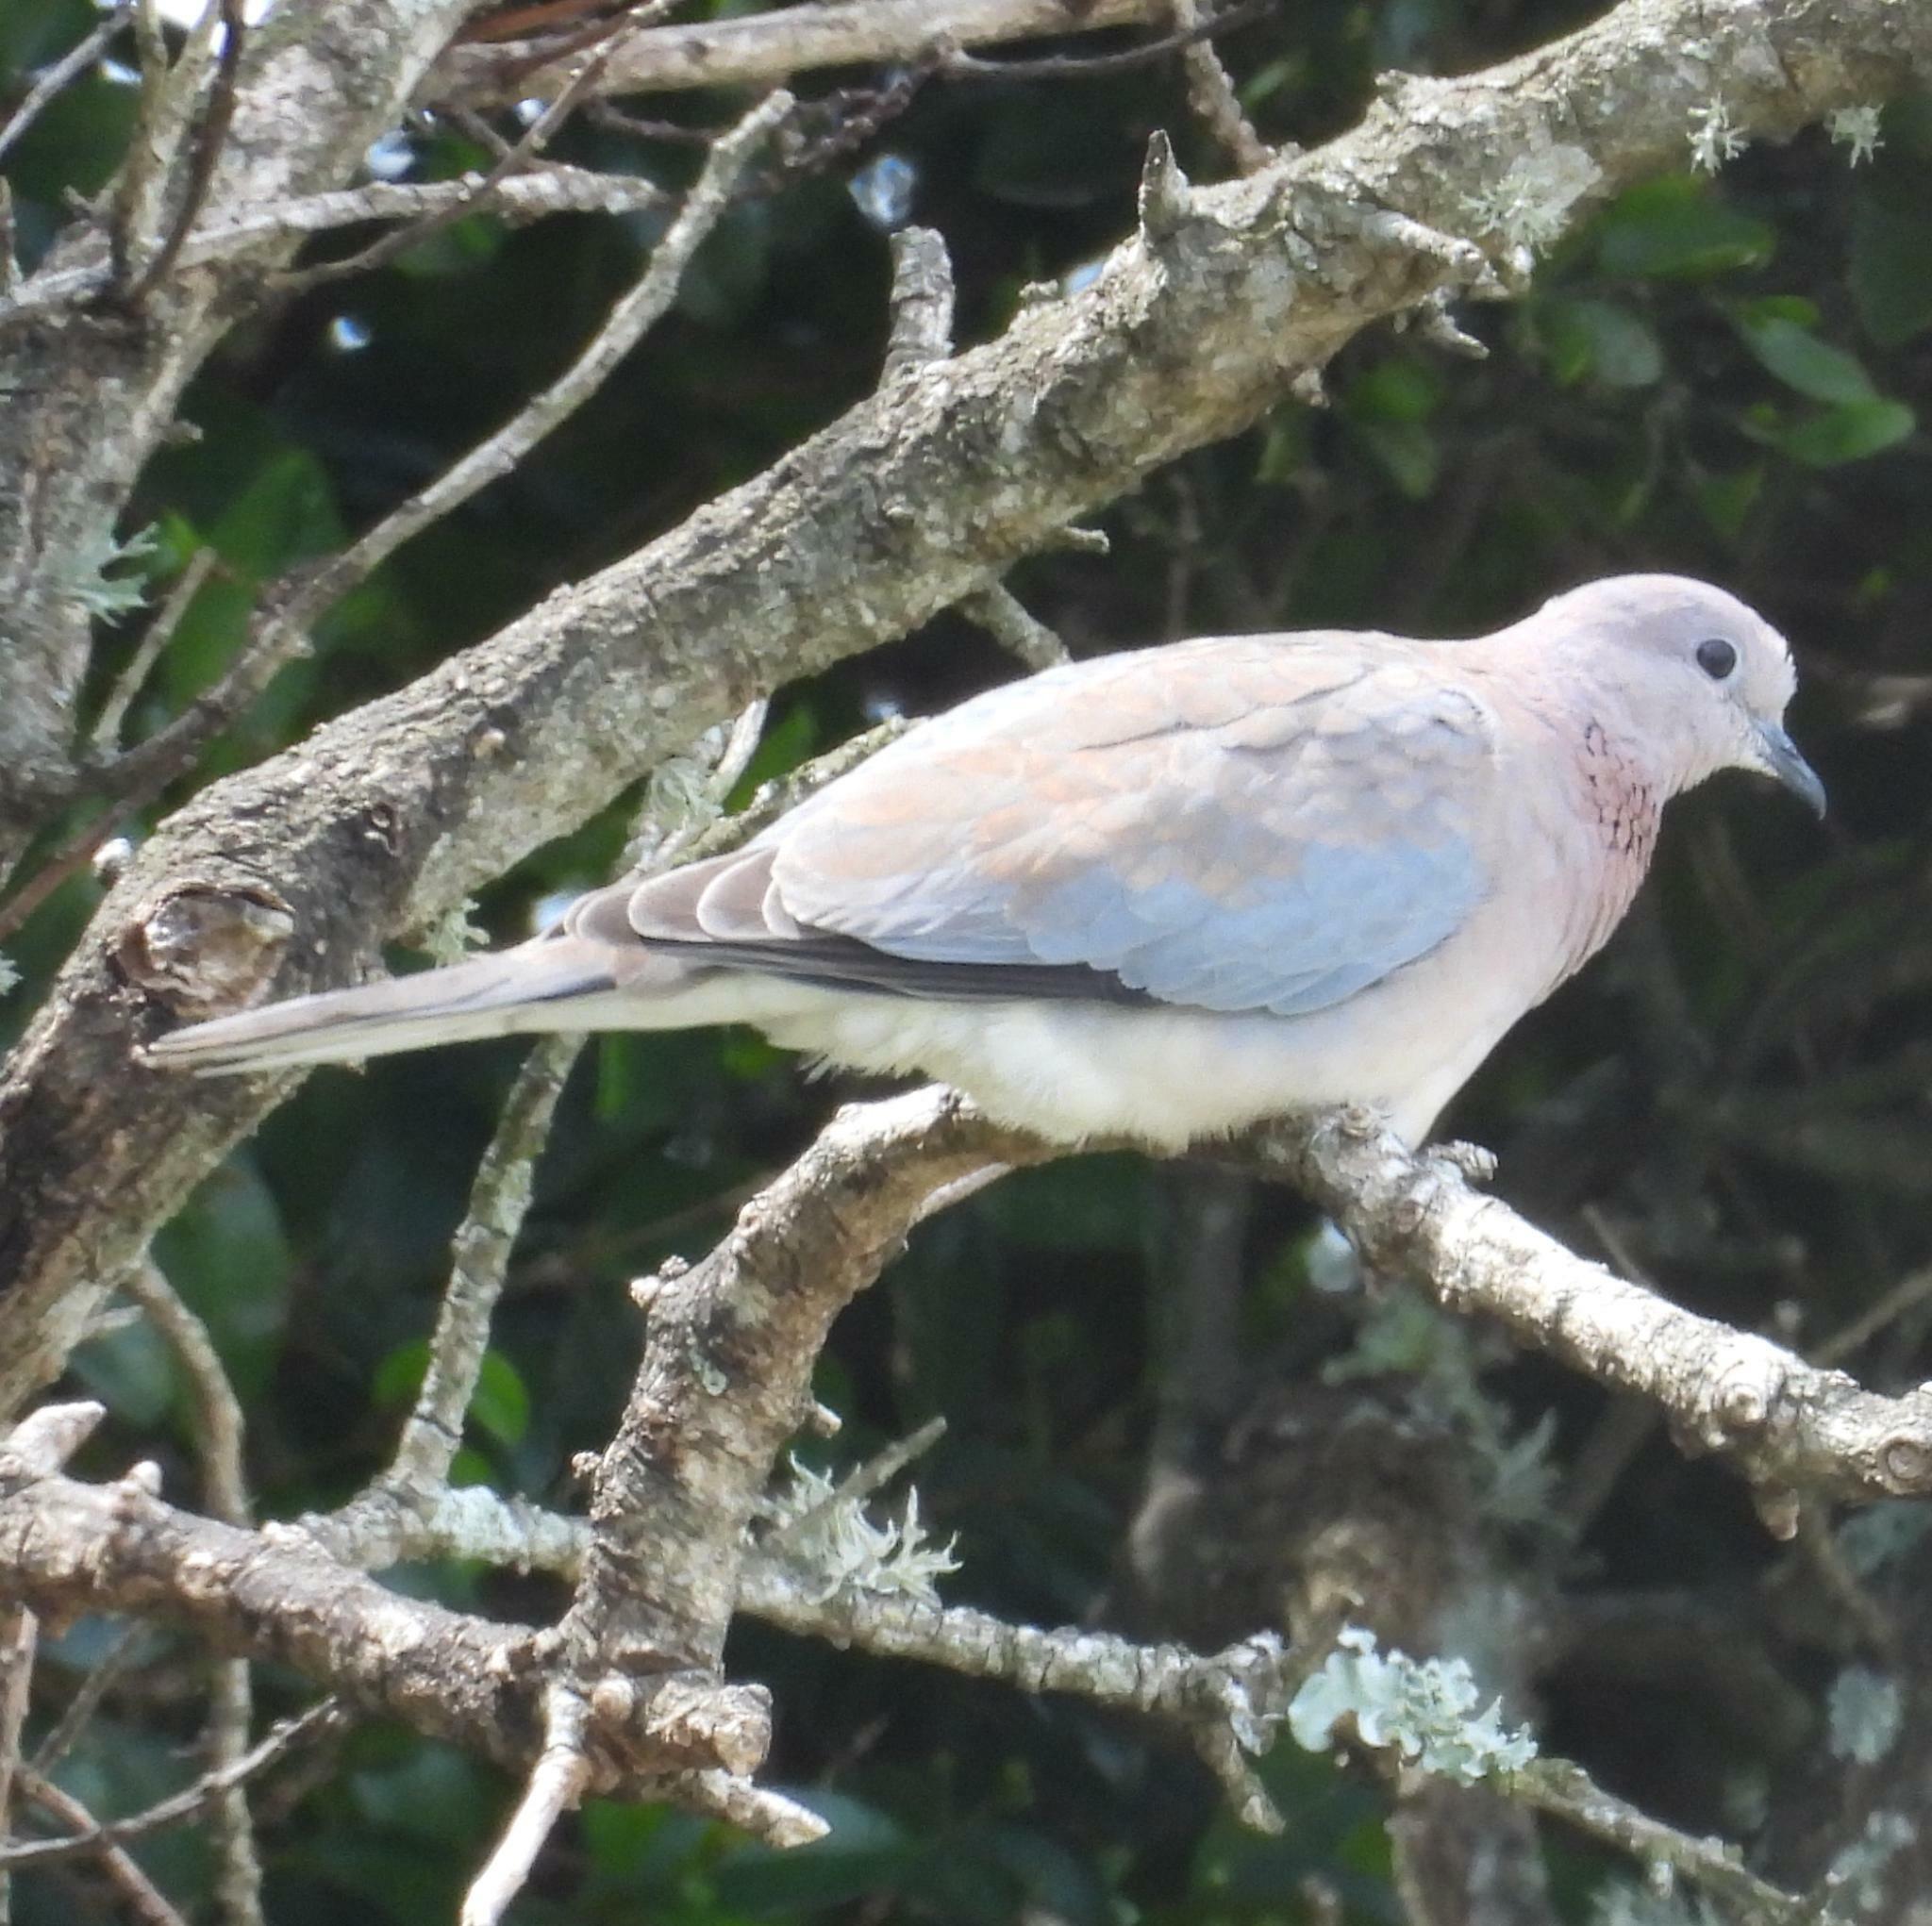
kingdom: Animalia
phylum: Chordata
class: Aves
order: Columbiformes
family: Columbidae
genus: Spilopelia
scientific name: Spilopelia senegalensis
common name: Laughing dove
